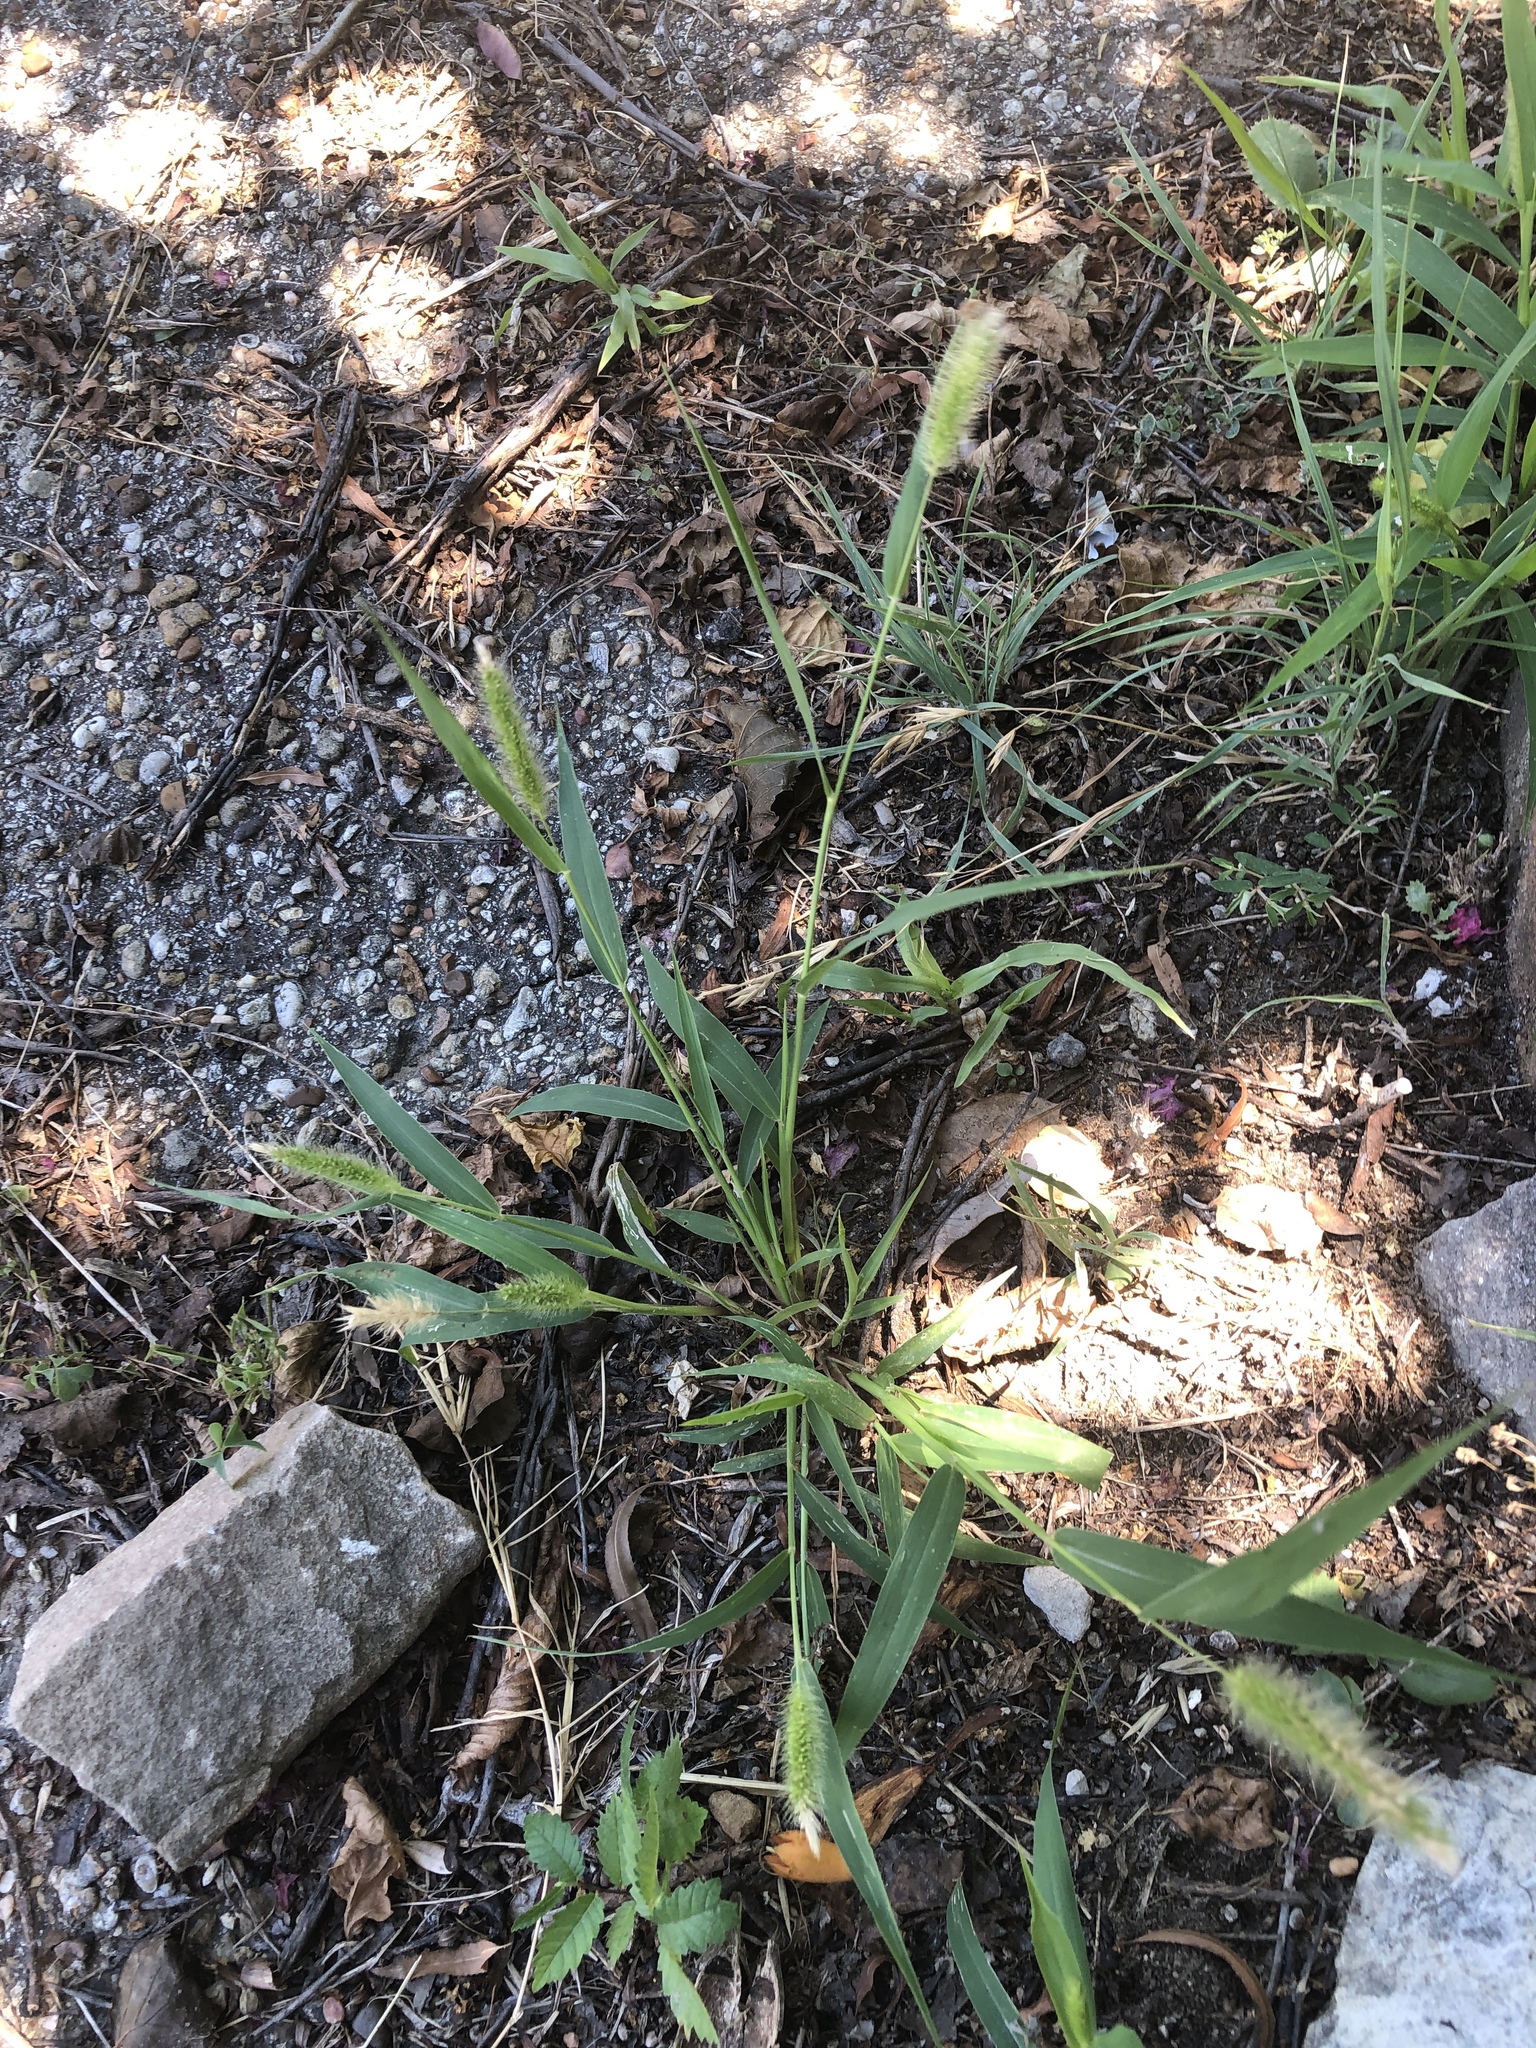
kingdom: Plantae
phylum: Tracheophyta
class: Liliopsida
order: Poales
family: Poaceae
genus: Setaria
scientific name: Setaria viridis
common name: Green bristlegrass
